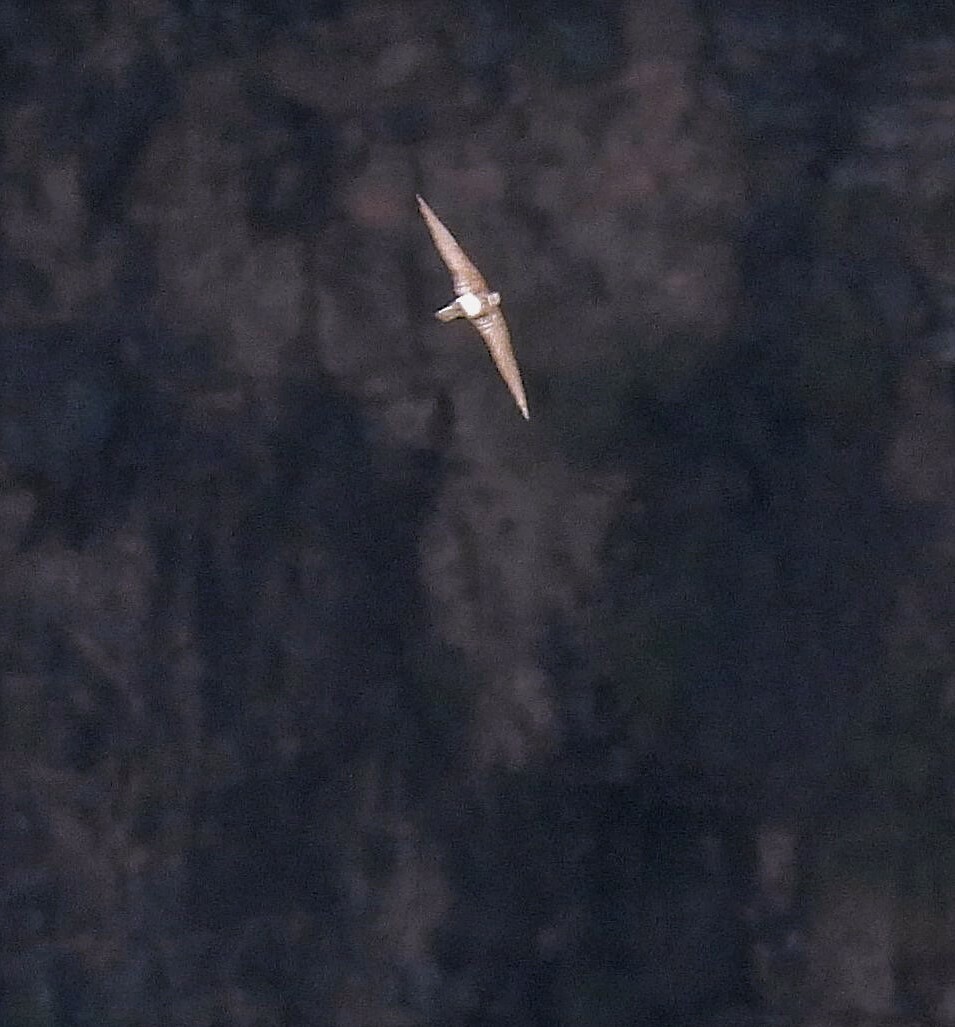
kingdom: Animalia
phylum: Chordata
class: Aves
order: Apodiformes
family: Apodidae
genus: Aeronautes
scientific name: Aeronautes andecolus
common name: Andean swift
